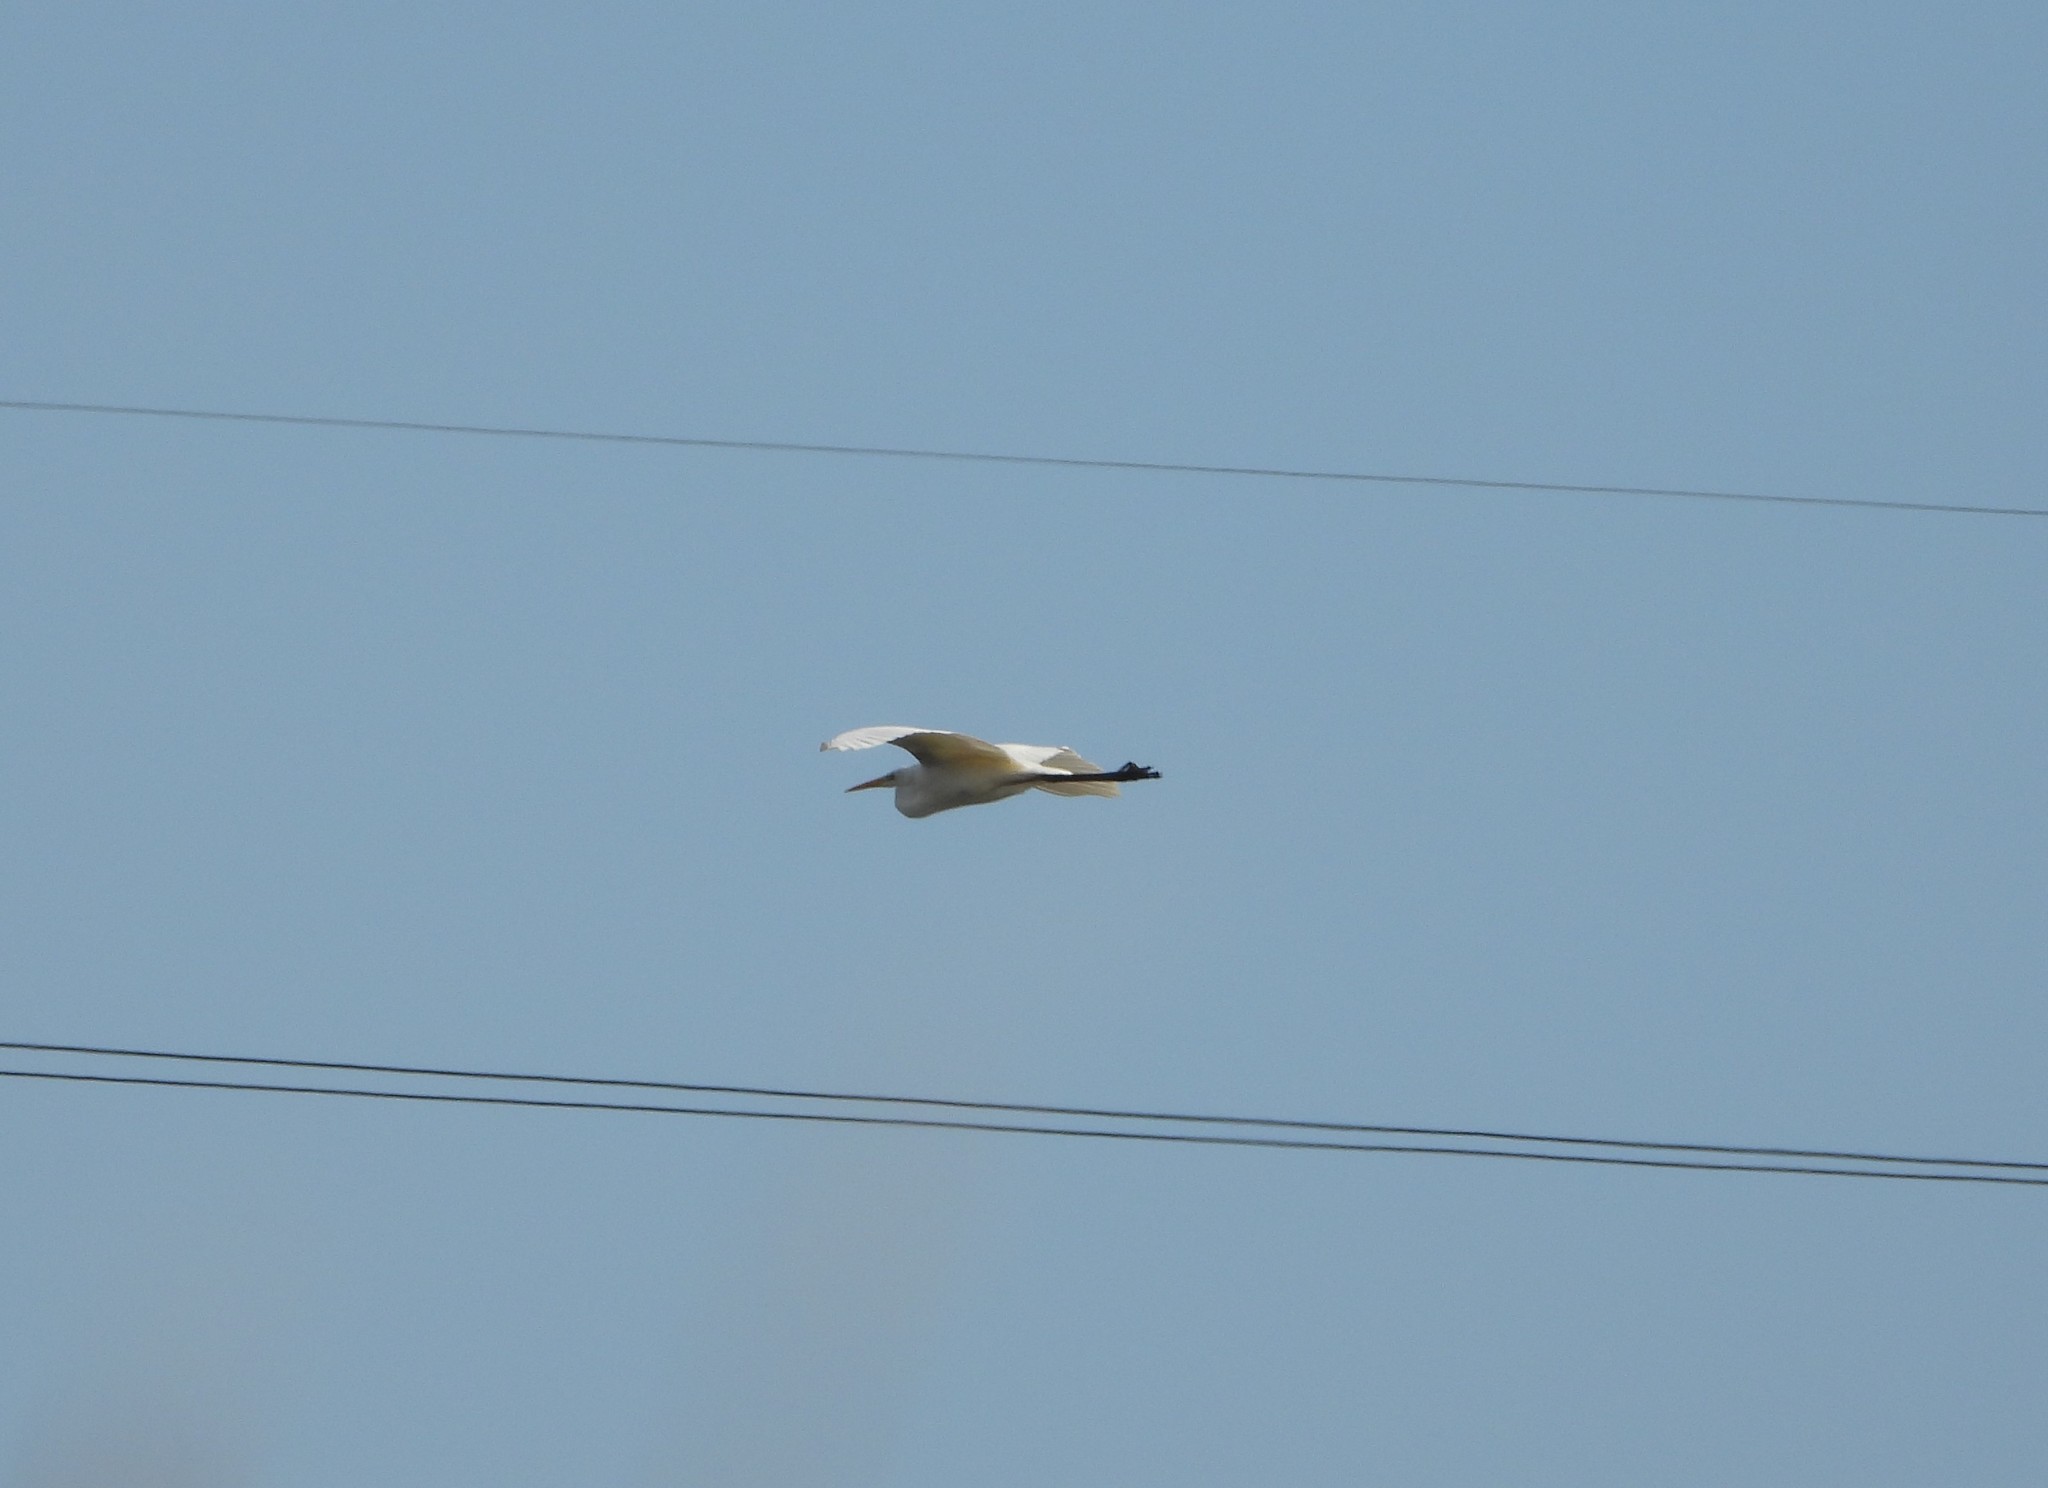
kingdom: Animalia
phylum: Chordata
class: Aves
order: Pelecaniformes
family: Ardeidae
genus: Ardea
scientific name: Ardea alba
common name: Great egret
